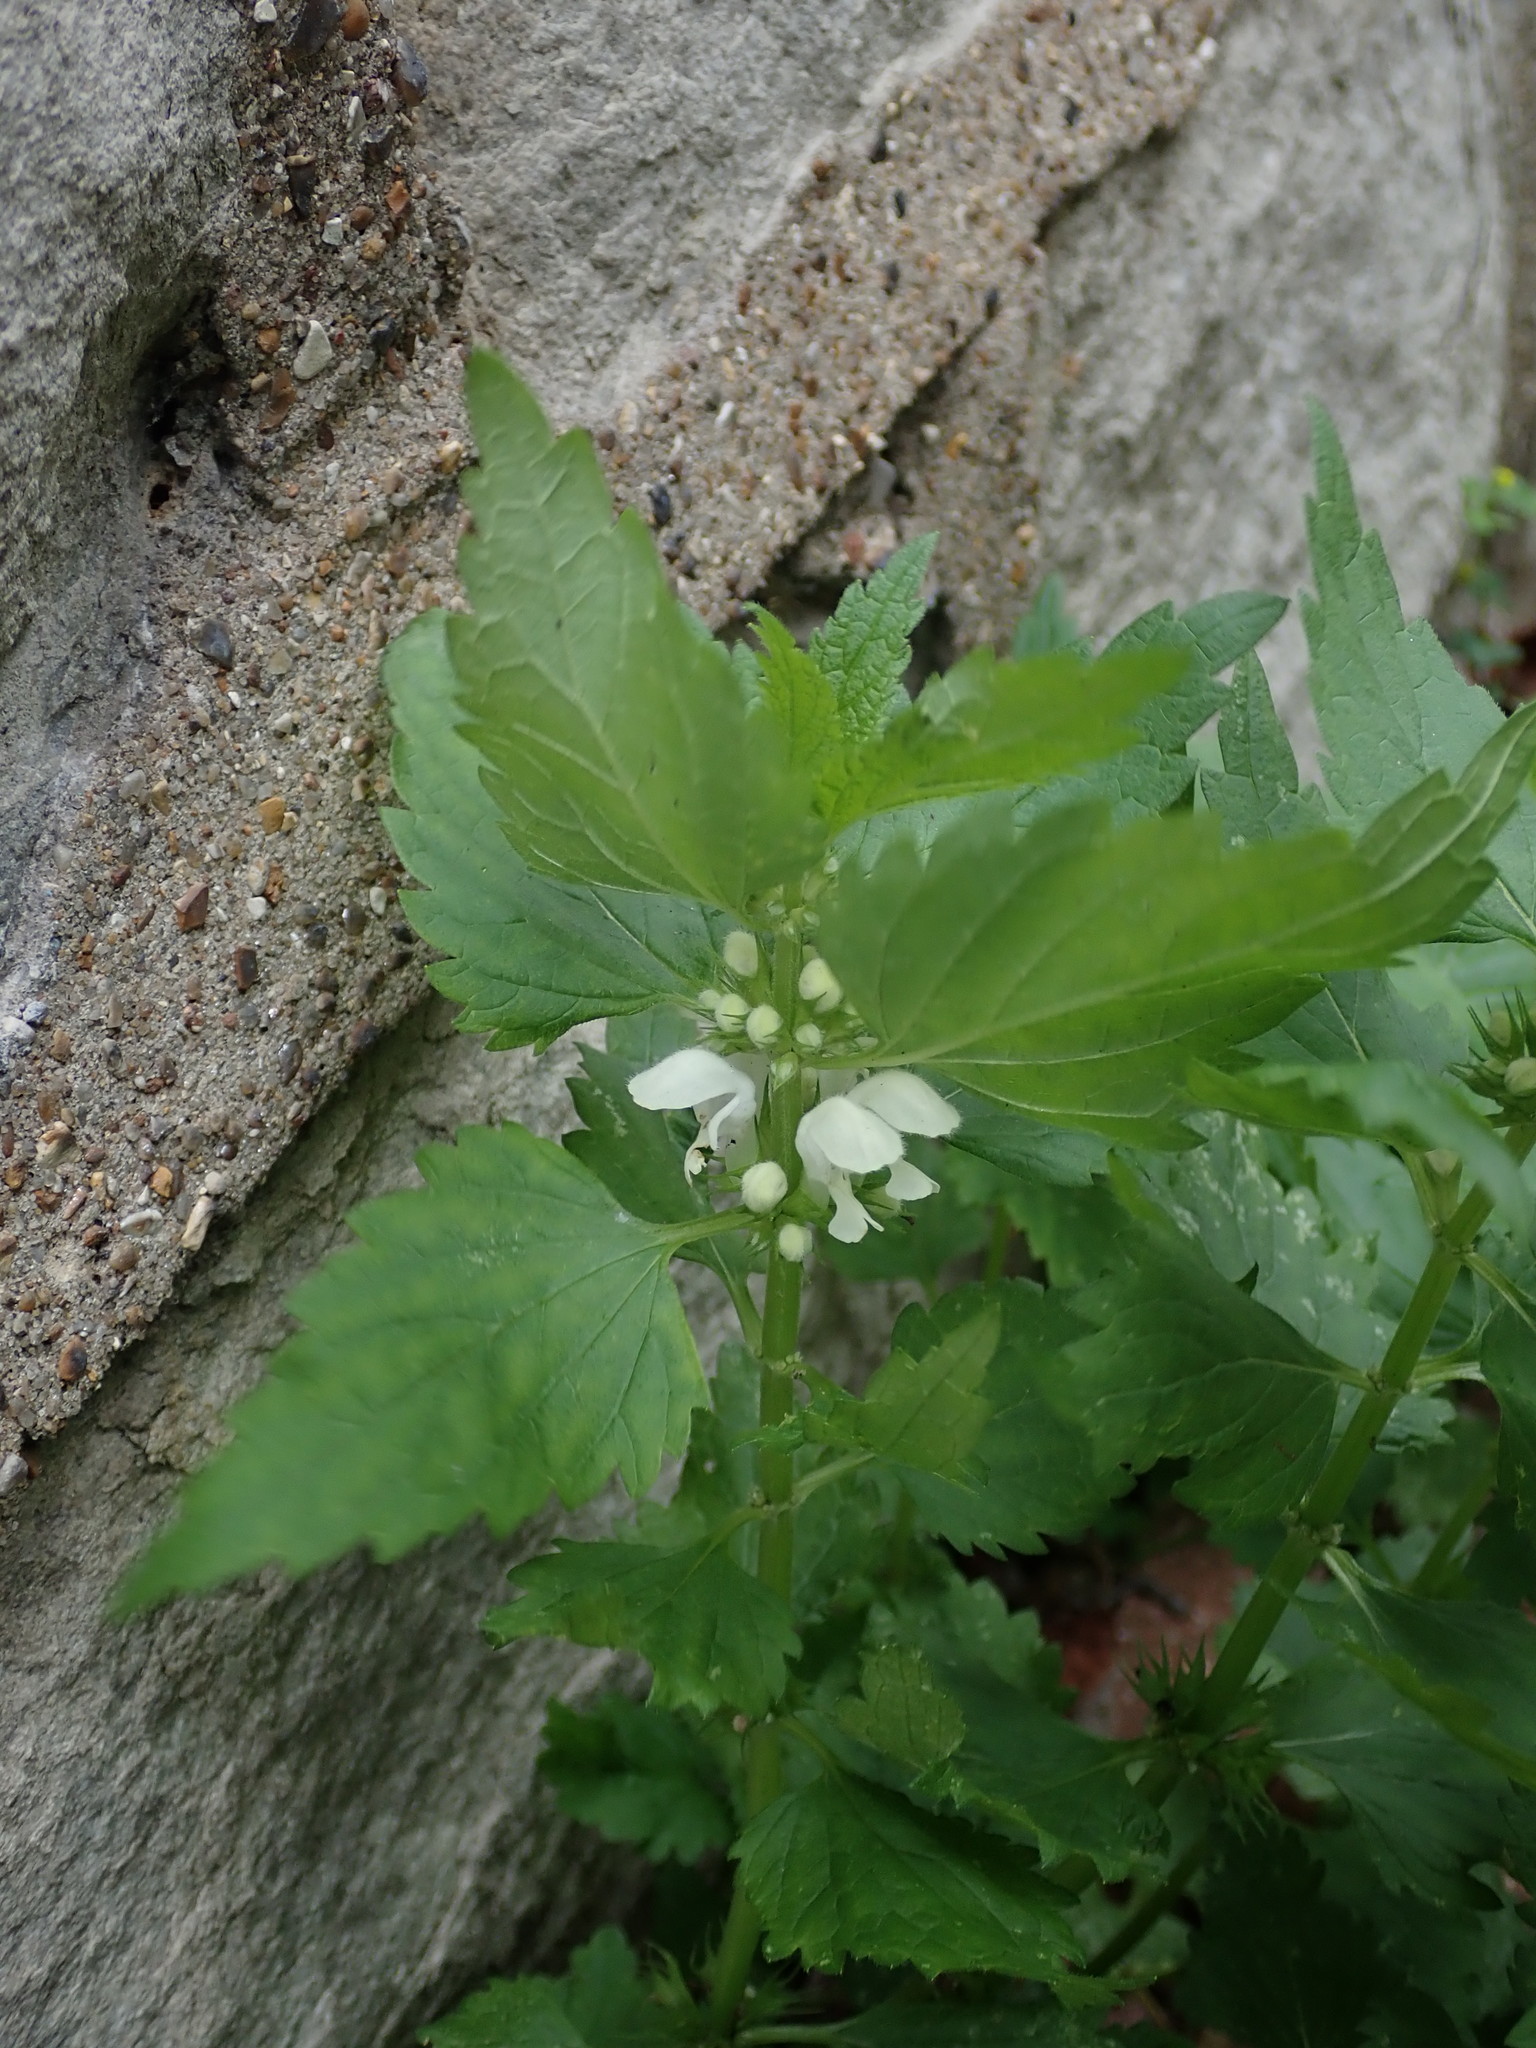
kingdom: Plantae
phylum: Tracheophyta
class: Magnoliopsida
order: Lamiales
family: Lamiaceae
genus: Lamium
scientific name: Lamium album
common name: White dead-nettle
